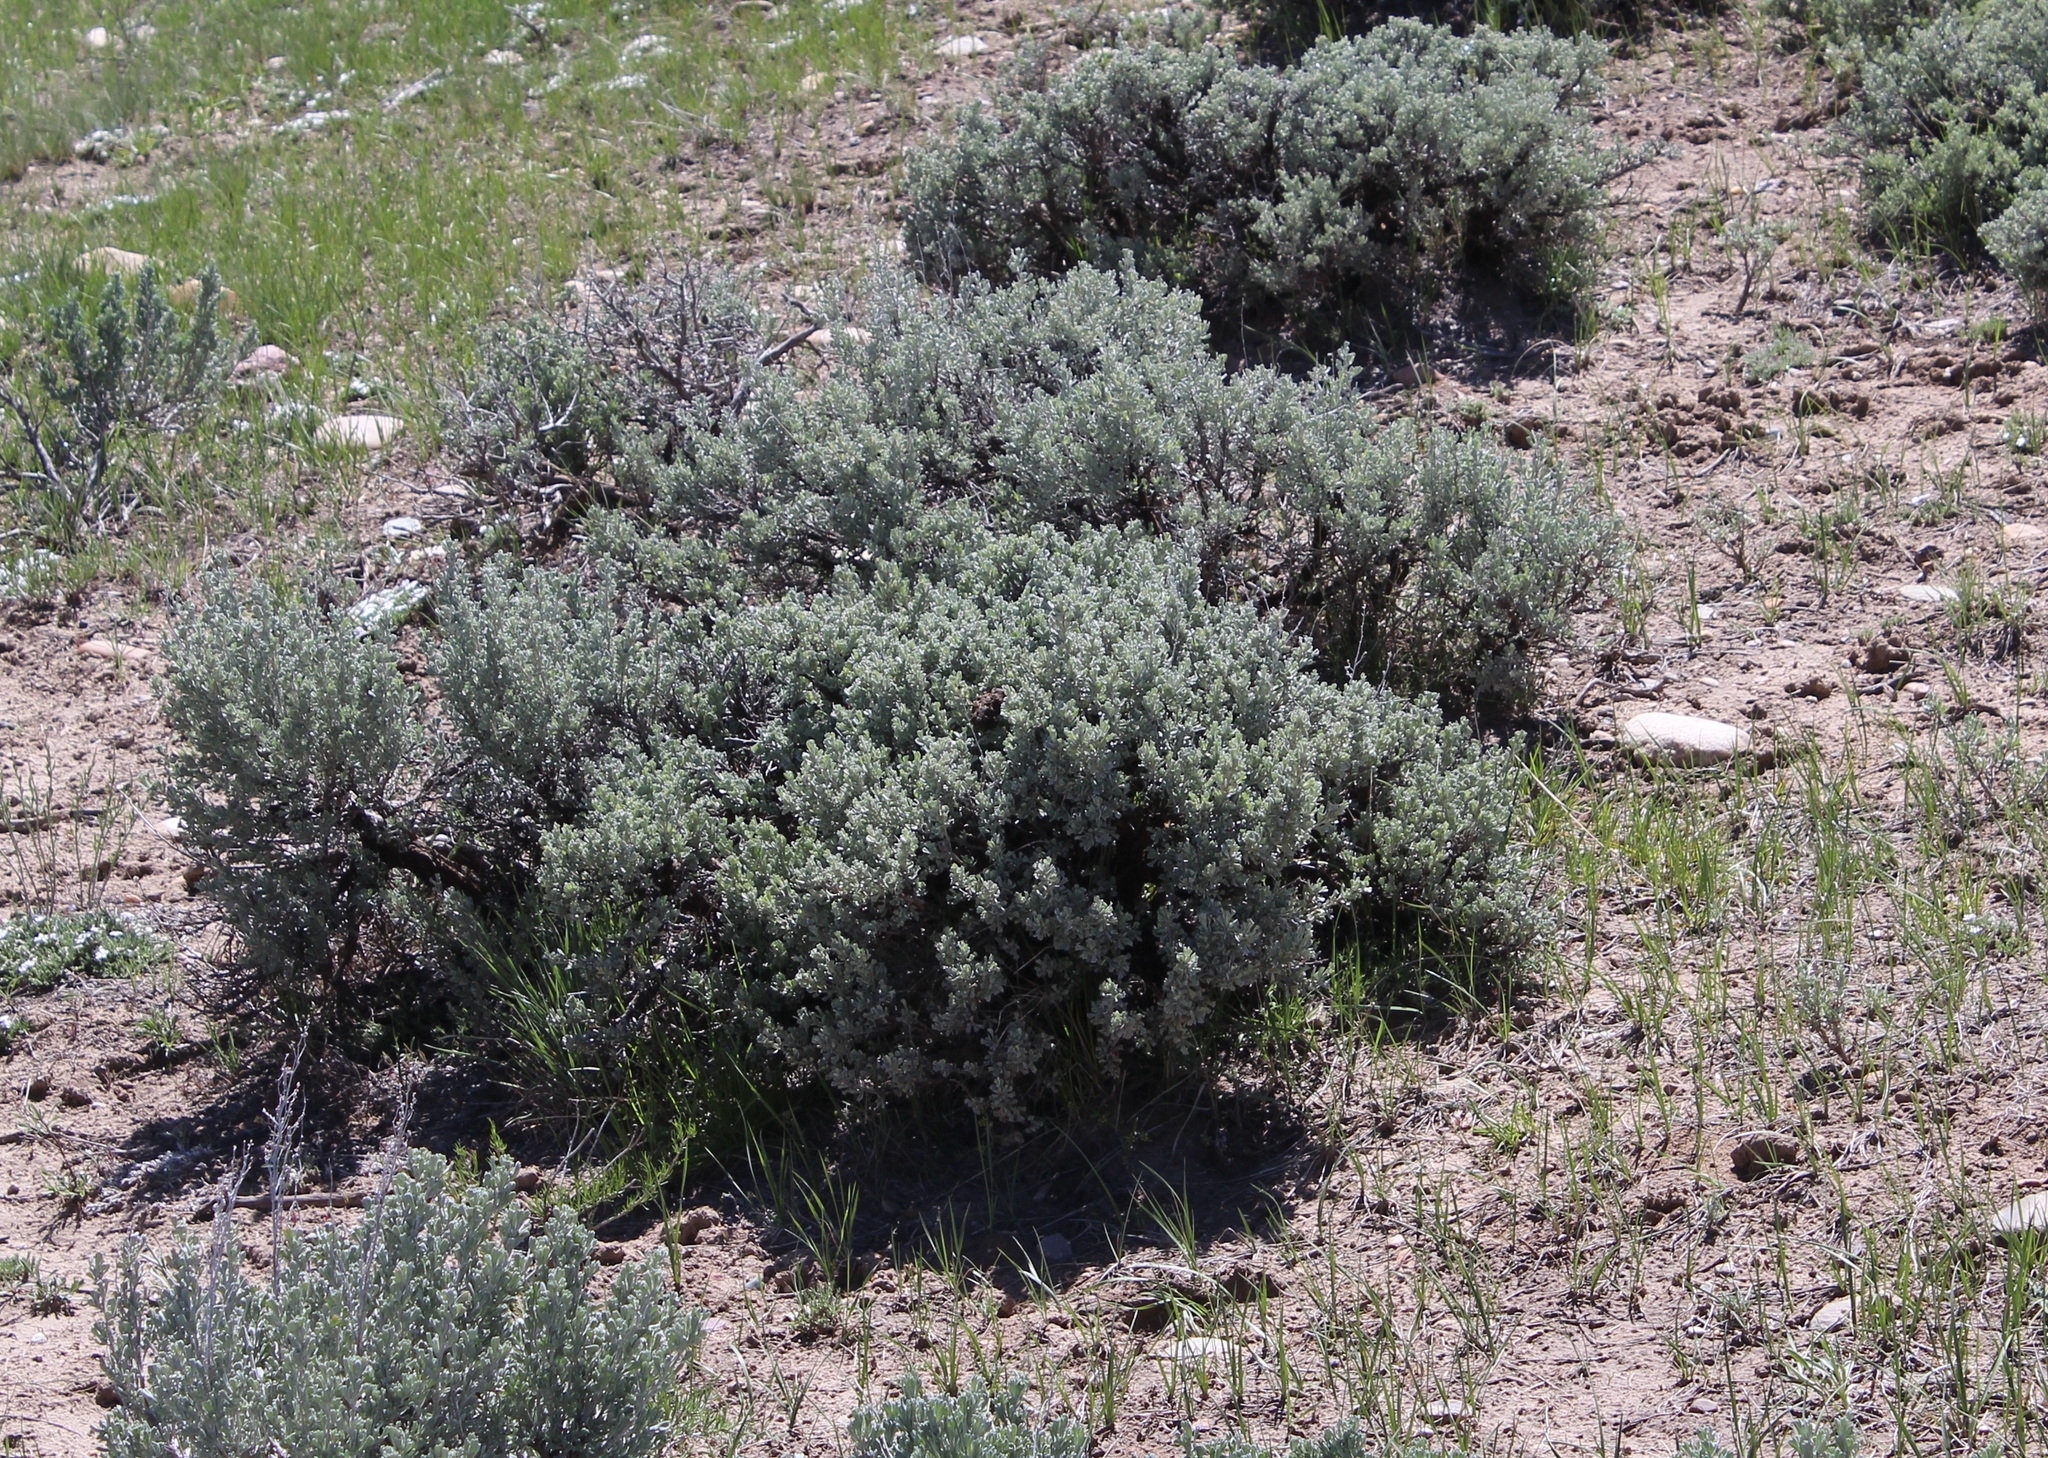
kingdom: Plantae
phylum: Tracheophyta
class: Magnoliopsida
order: Asterales
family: Asteraceae
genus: Artemisia
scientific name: Artemisia tridentata
